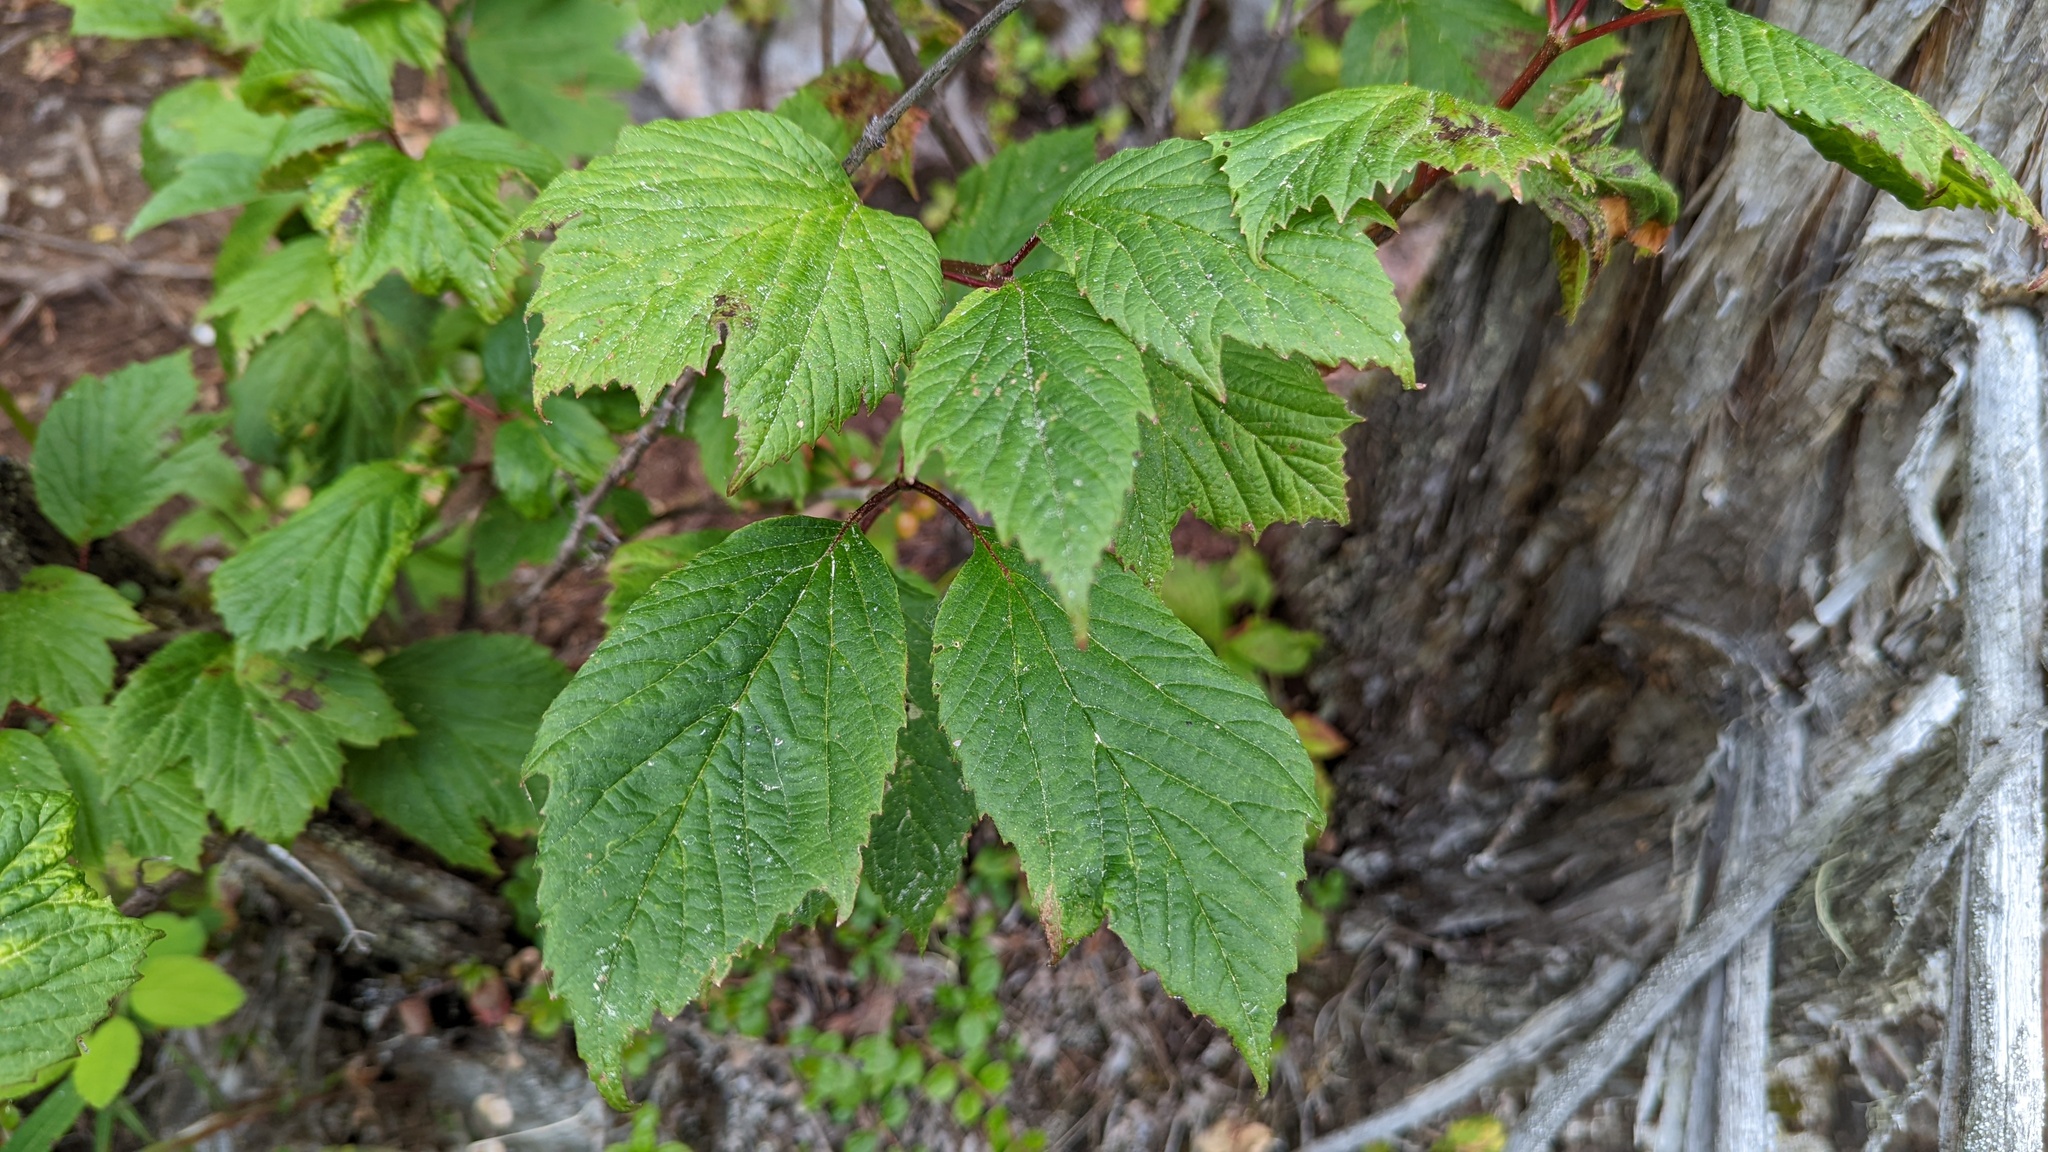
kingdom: Plantae
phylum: Tracheophyta
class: Magnoliopsida
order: Dipsacales
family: Viburnaceae
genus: Viburnum
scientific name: Viburnum edule
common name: Mooseberry
